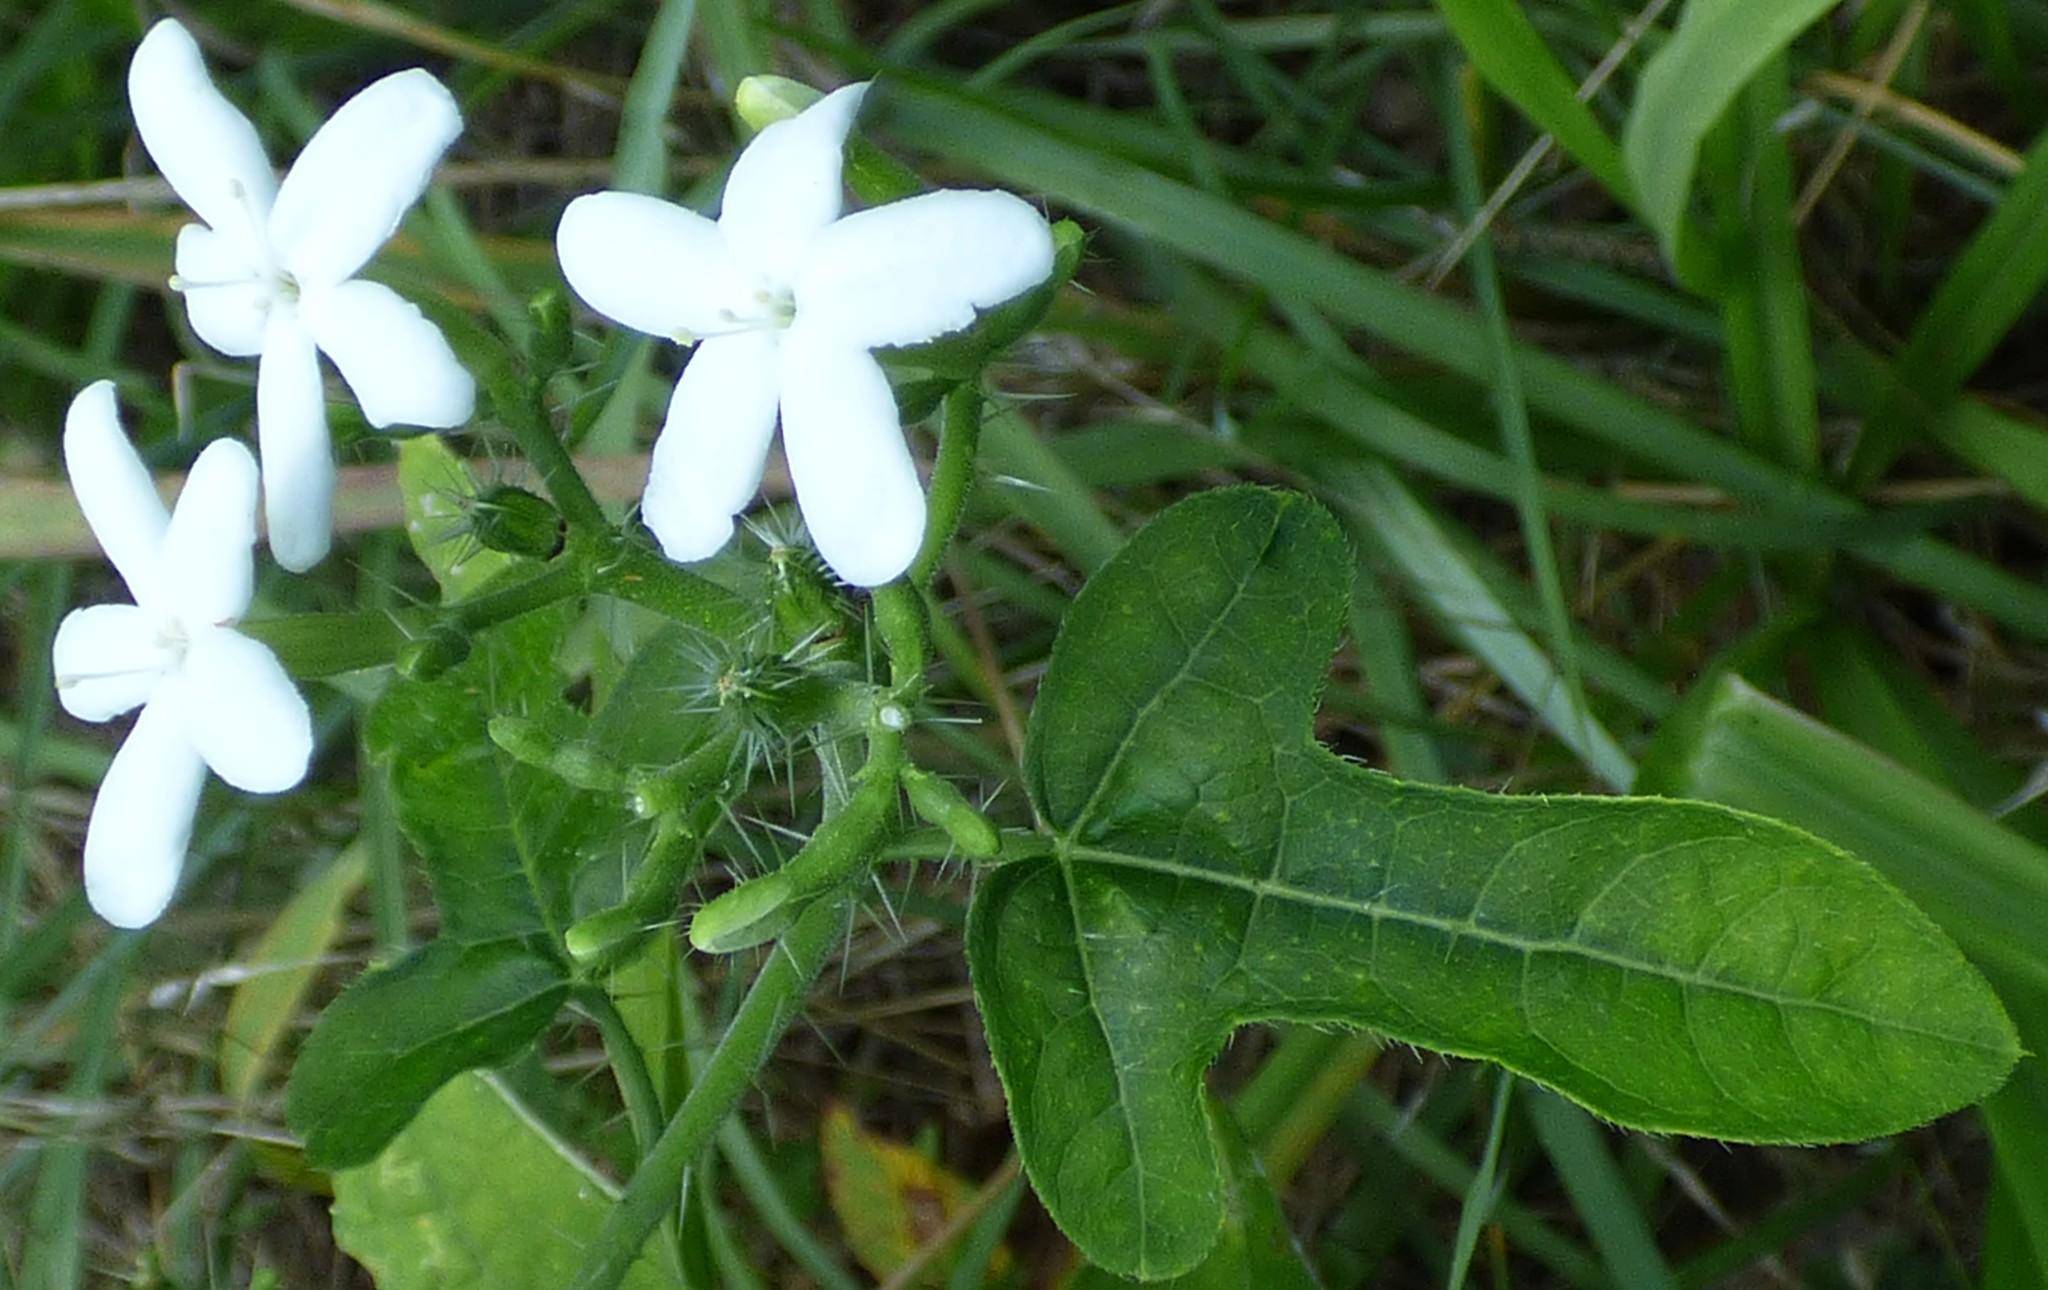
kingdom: Plantae
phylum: Tracheophyta
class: Magnoliopsida
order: Malpighiales
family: Euphorbiaceae
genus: Cnidoscolus
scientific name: Cnidoscolus stimulosus
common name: Bull-nettle
